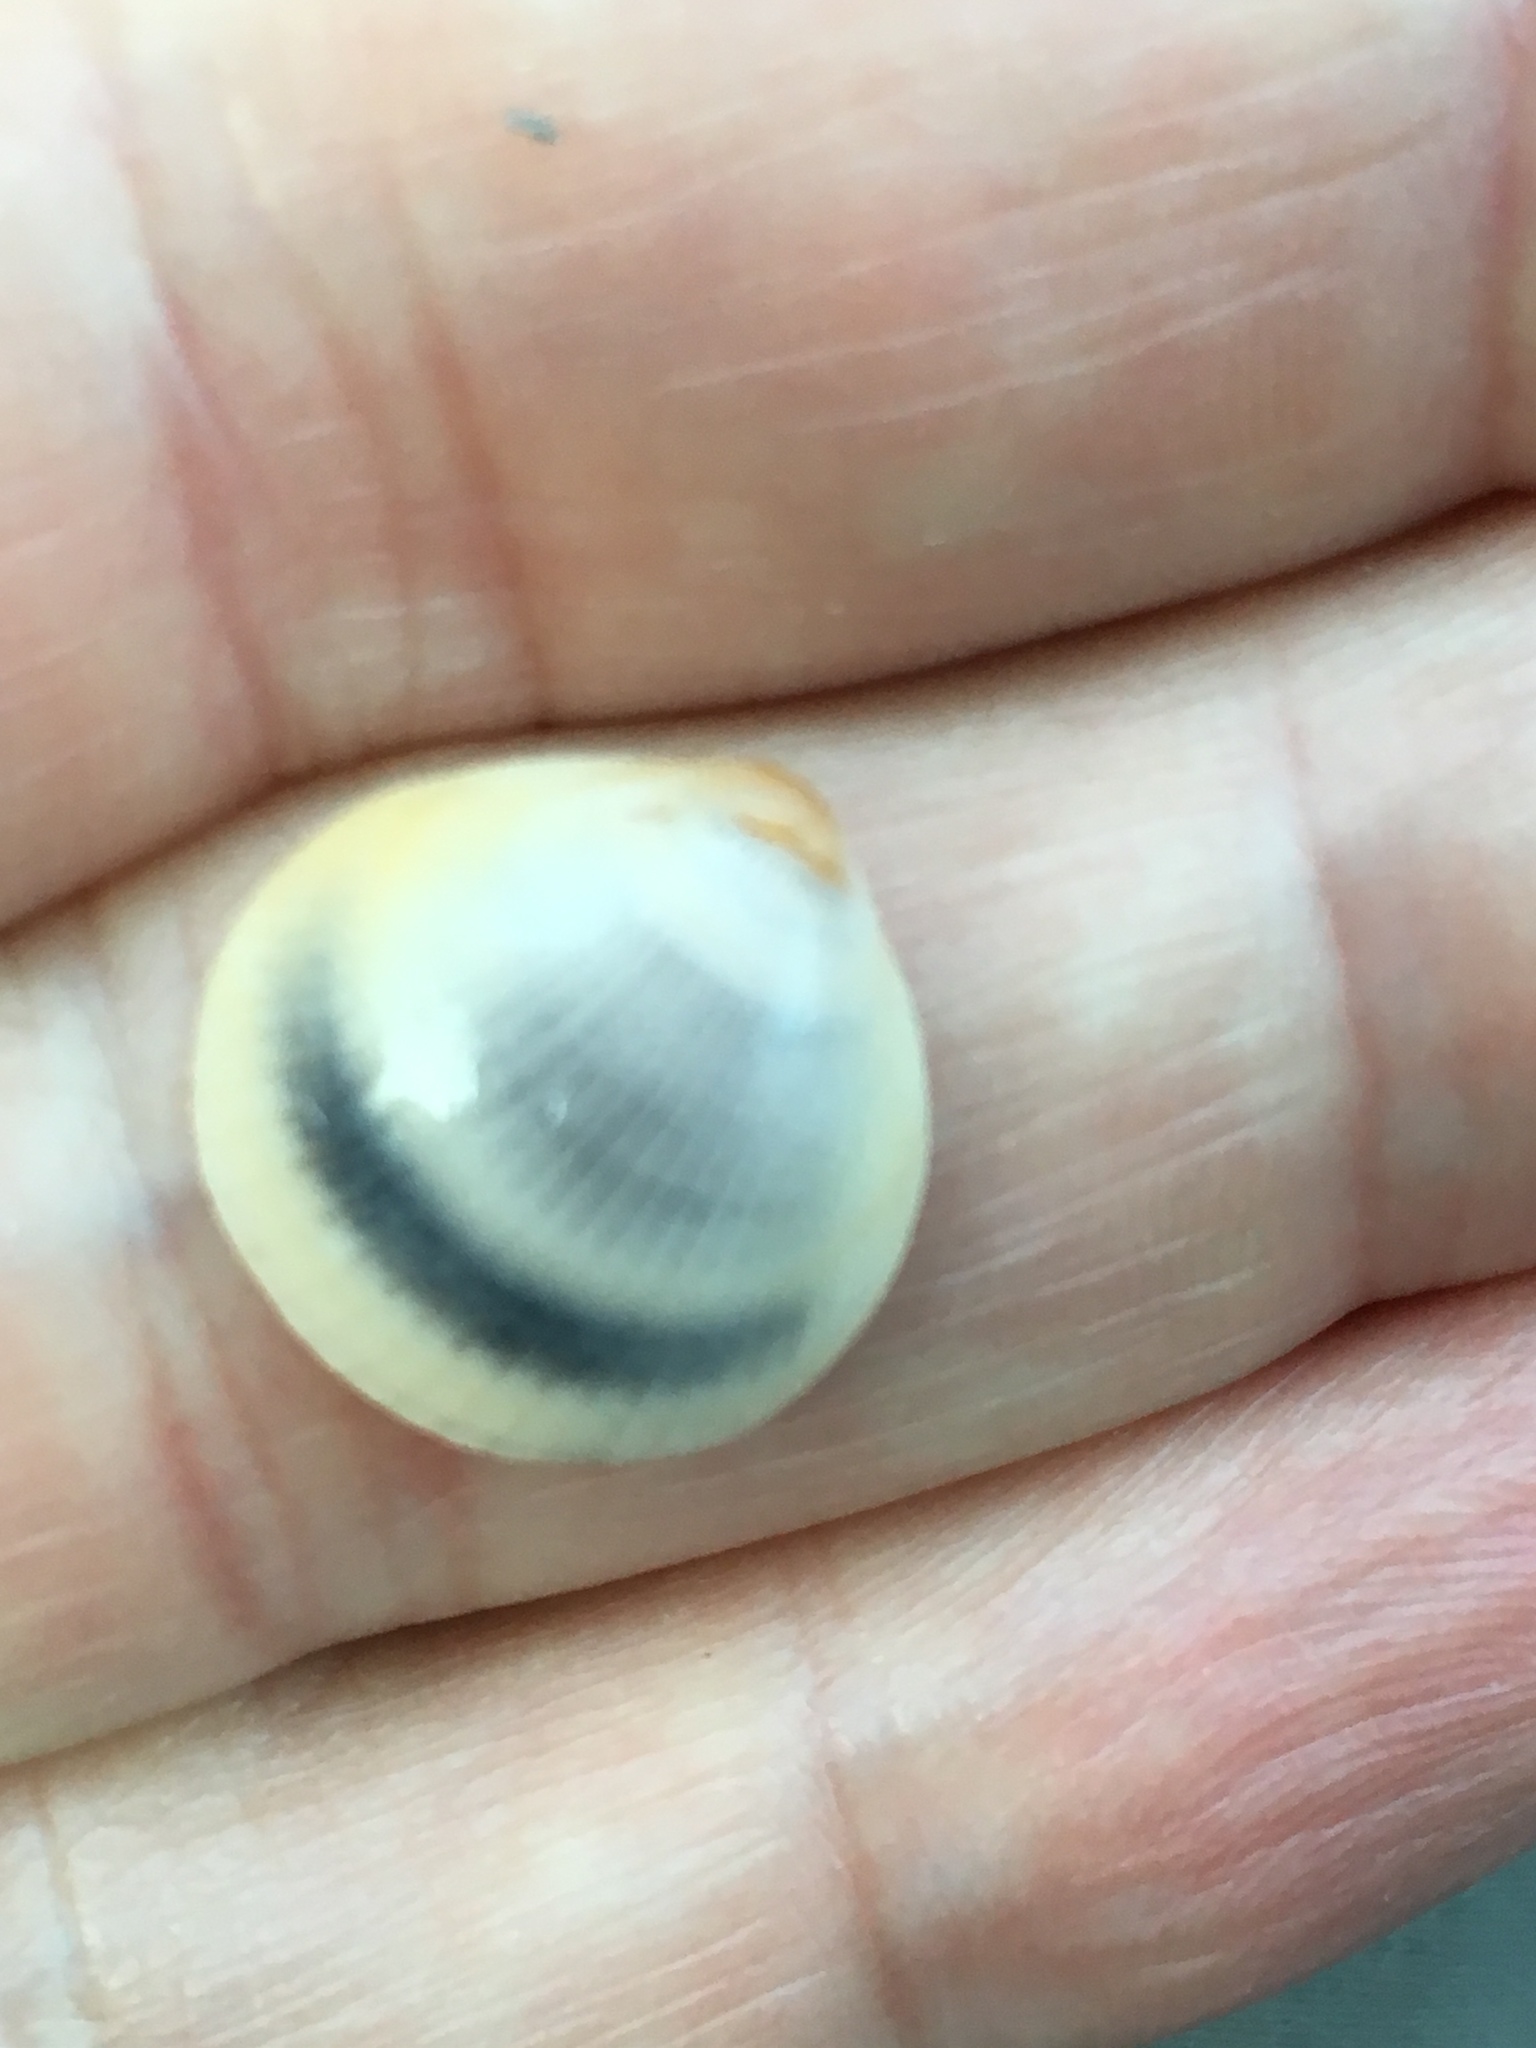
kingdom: Animalia
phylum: Mollusca
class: Bivalvia
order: Arcida
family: Glycymerididae
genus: Glycymeris
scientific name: Glycymeris spectralis
